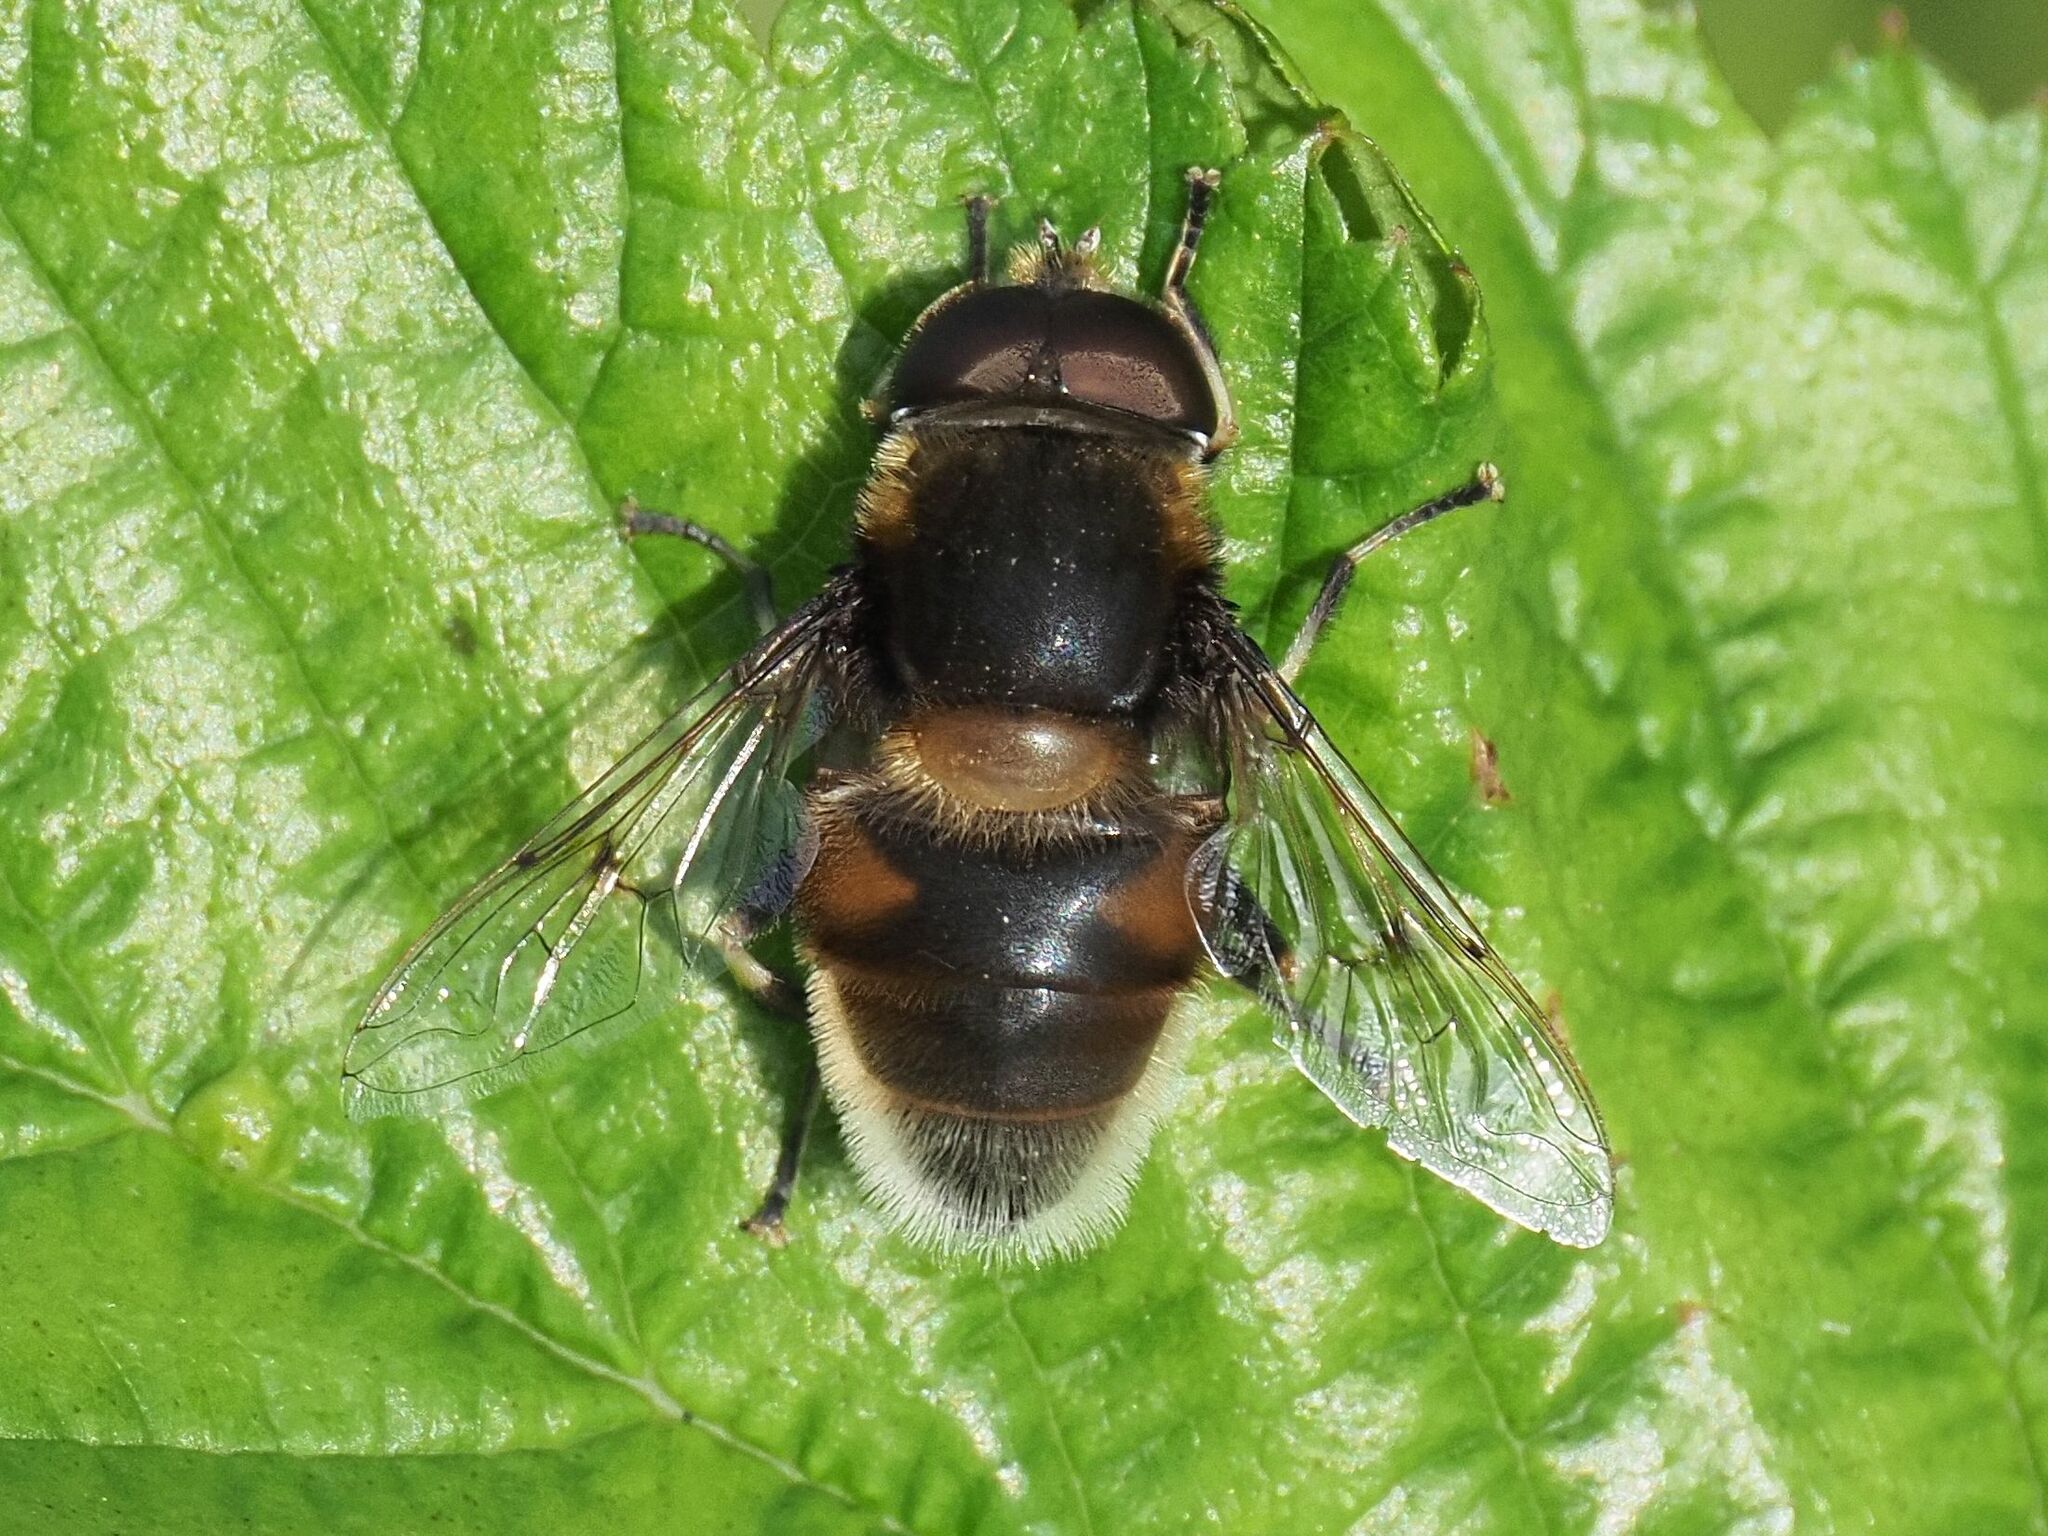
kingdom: Animalia
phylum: Arthropoda
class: Insecta
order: Diptera
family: Syrphidae
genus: Eristalis
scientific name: Eristalis intricaria
